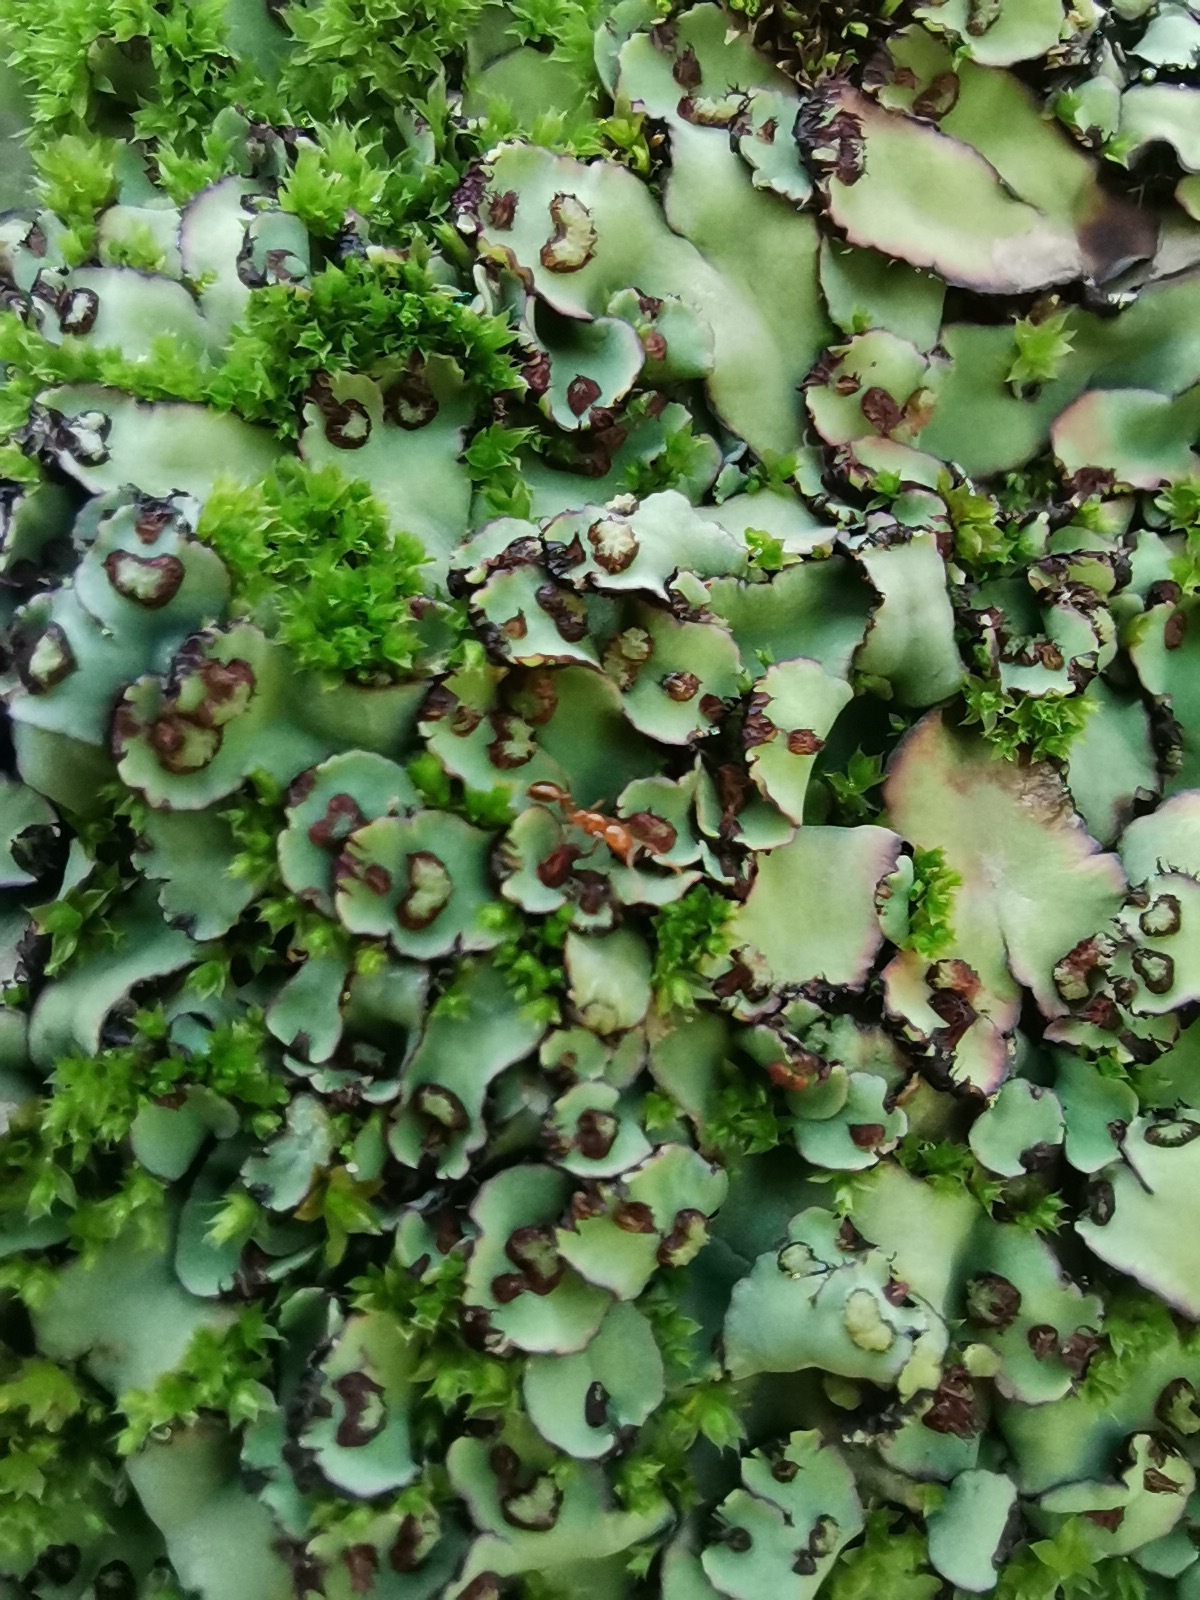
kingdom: Plantae
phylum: Marchantiophyta
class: Marchantiopsida
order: Marchantiales
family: Aytoniaceae
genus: Plagiochasma
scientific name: Plagiochasma rupestre
